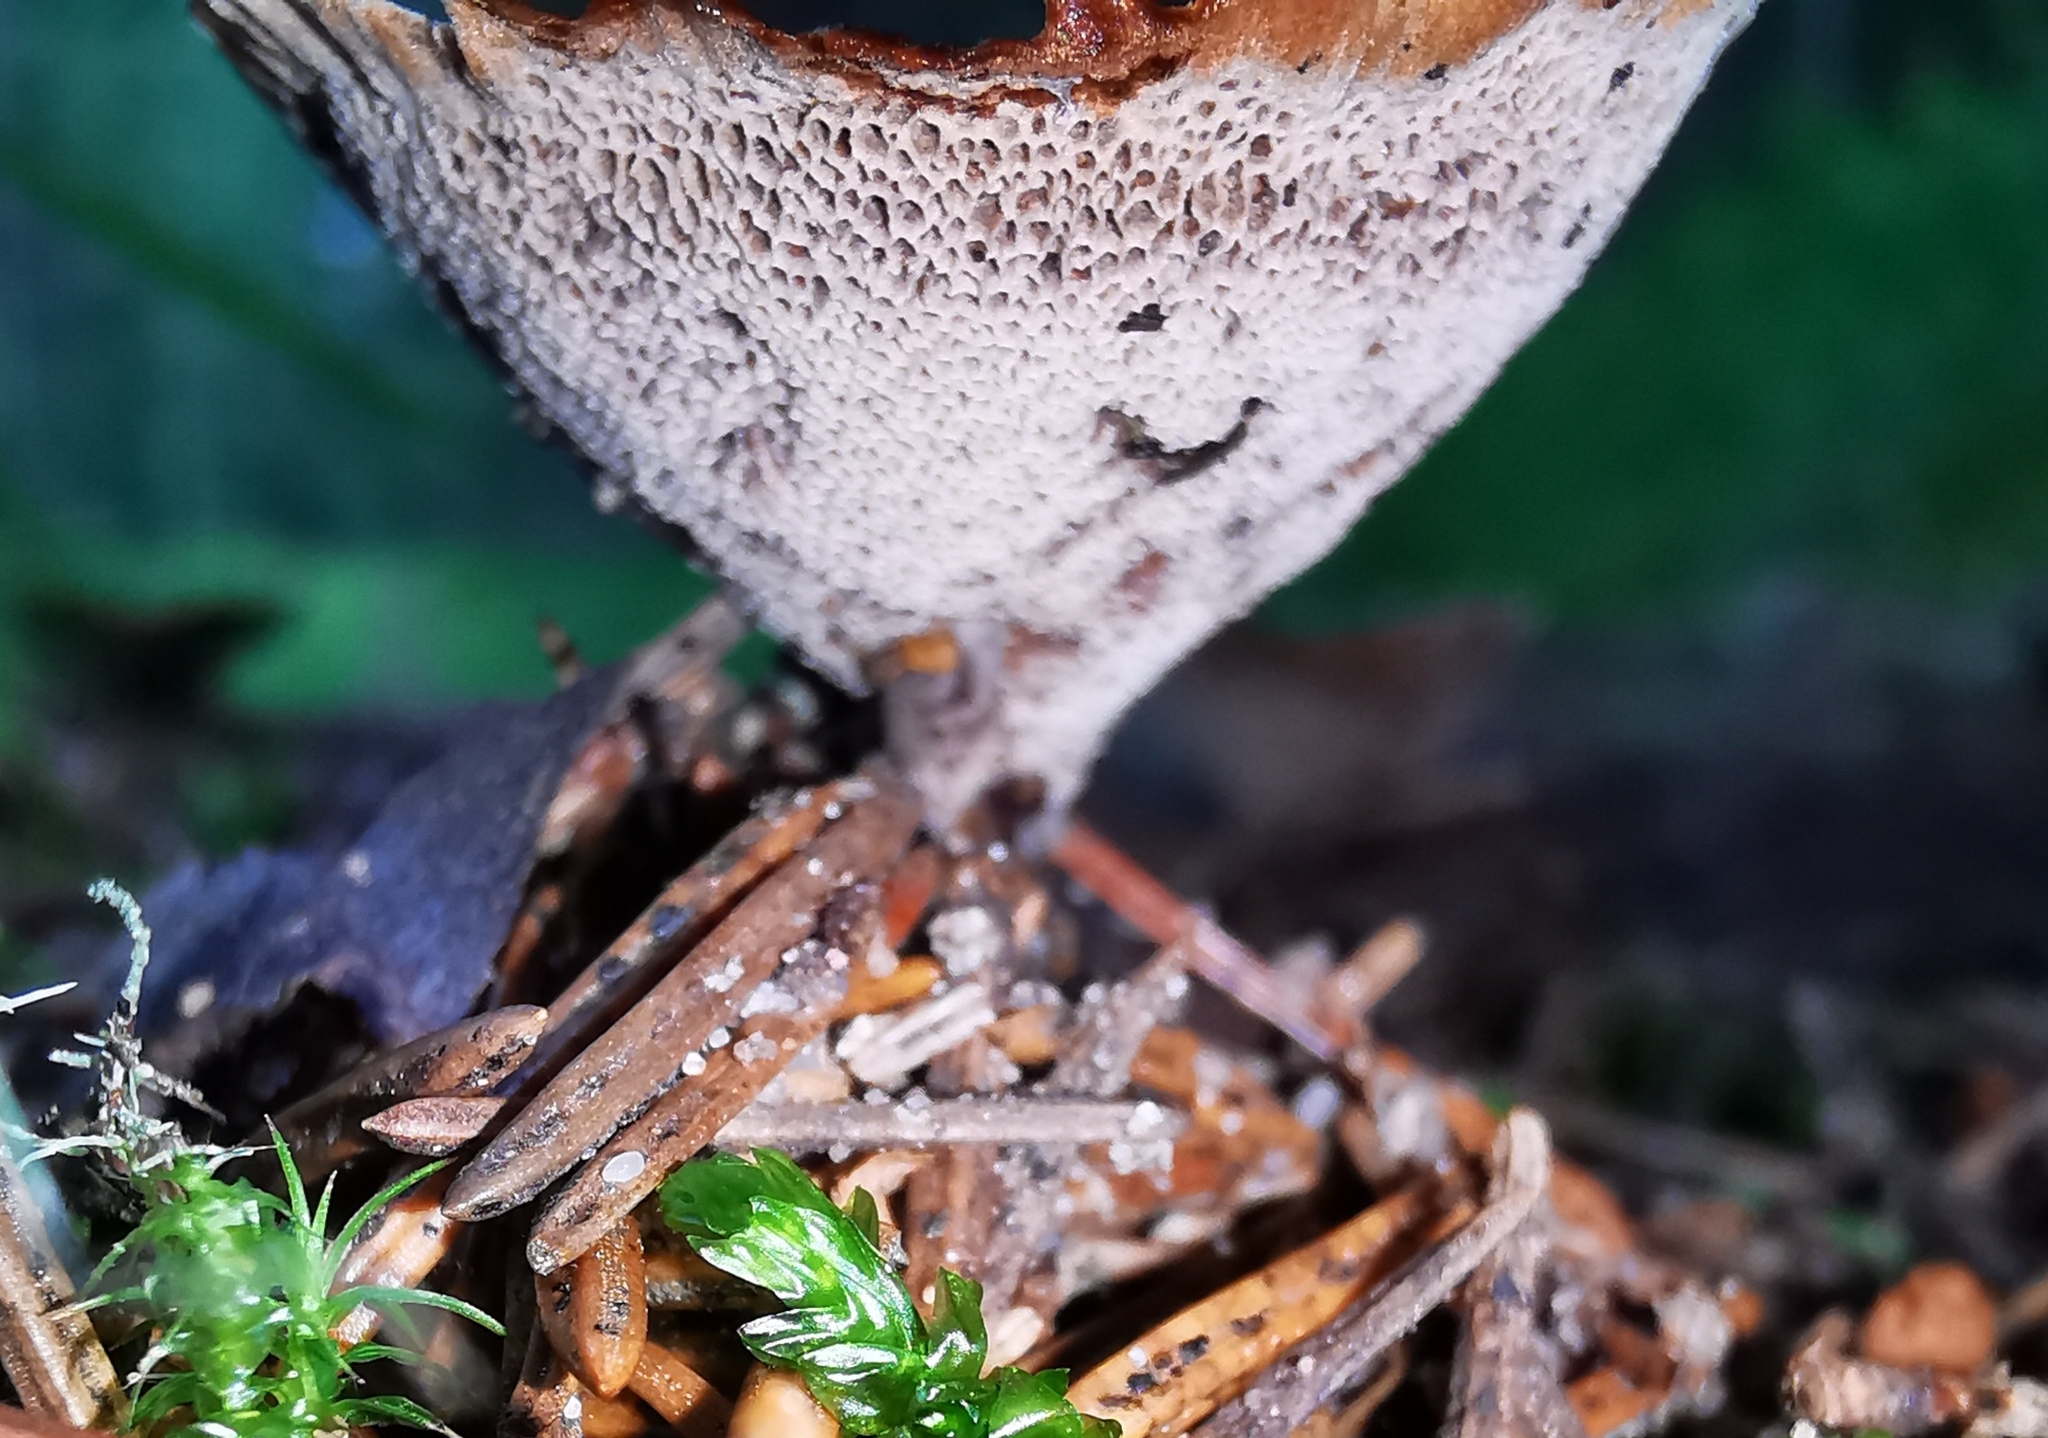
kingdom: Fungi
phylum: Basidiomycota
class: Agaricomycetes
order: Hymenochaetales
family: Hymenochaetaceae
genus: Coltricia
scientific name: Coltricia perennis
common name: Tiger's eye
